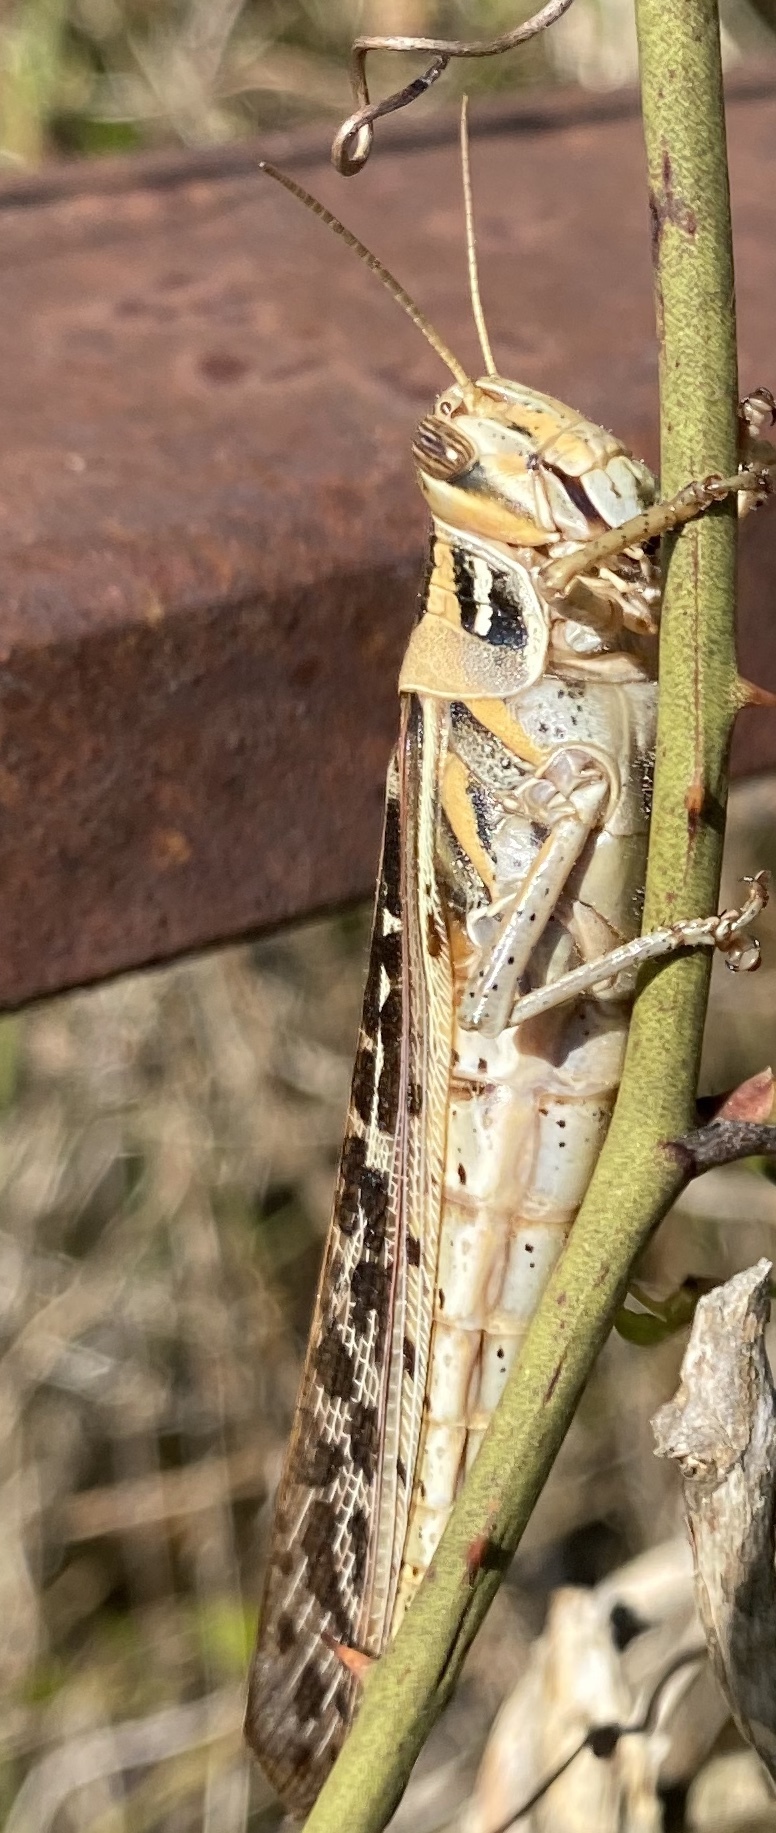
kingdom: Animalia
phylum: Arthropoda
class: Insecta
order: Orthoptera
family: Acrididae
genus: Schistocerca
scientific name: Schistocerca americana
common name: American bird locust
